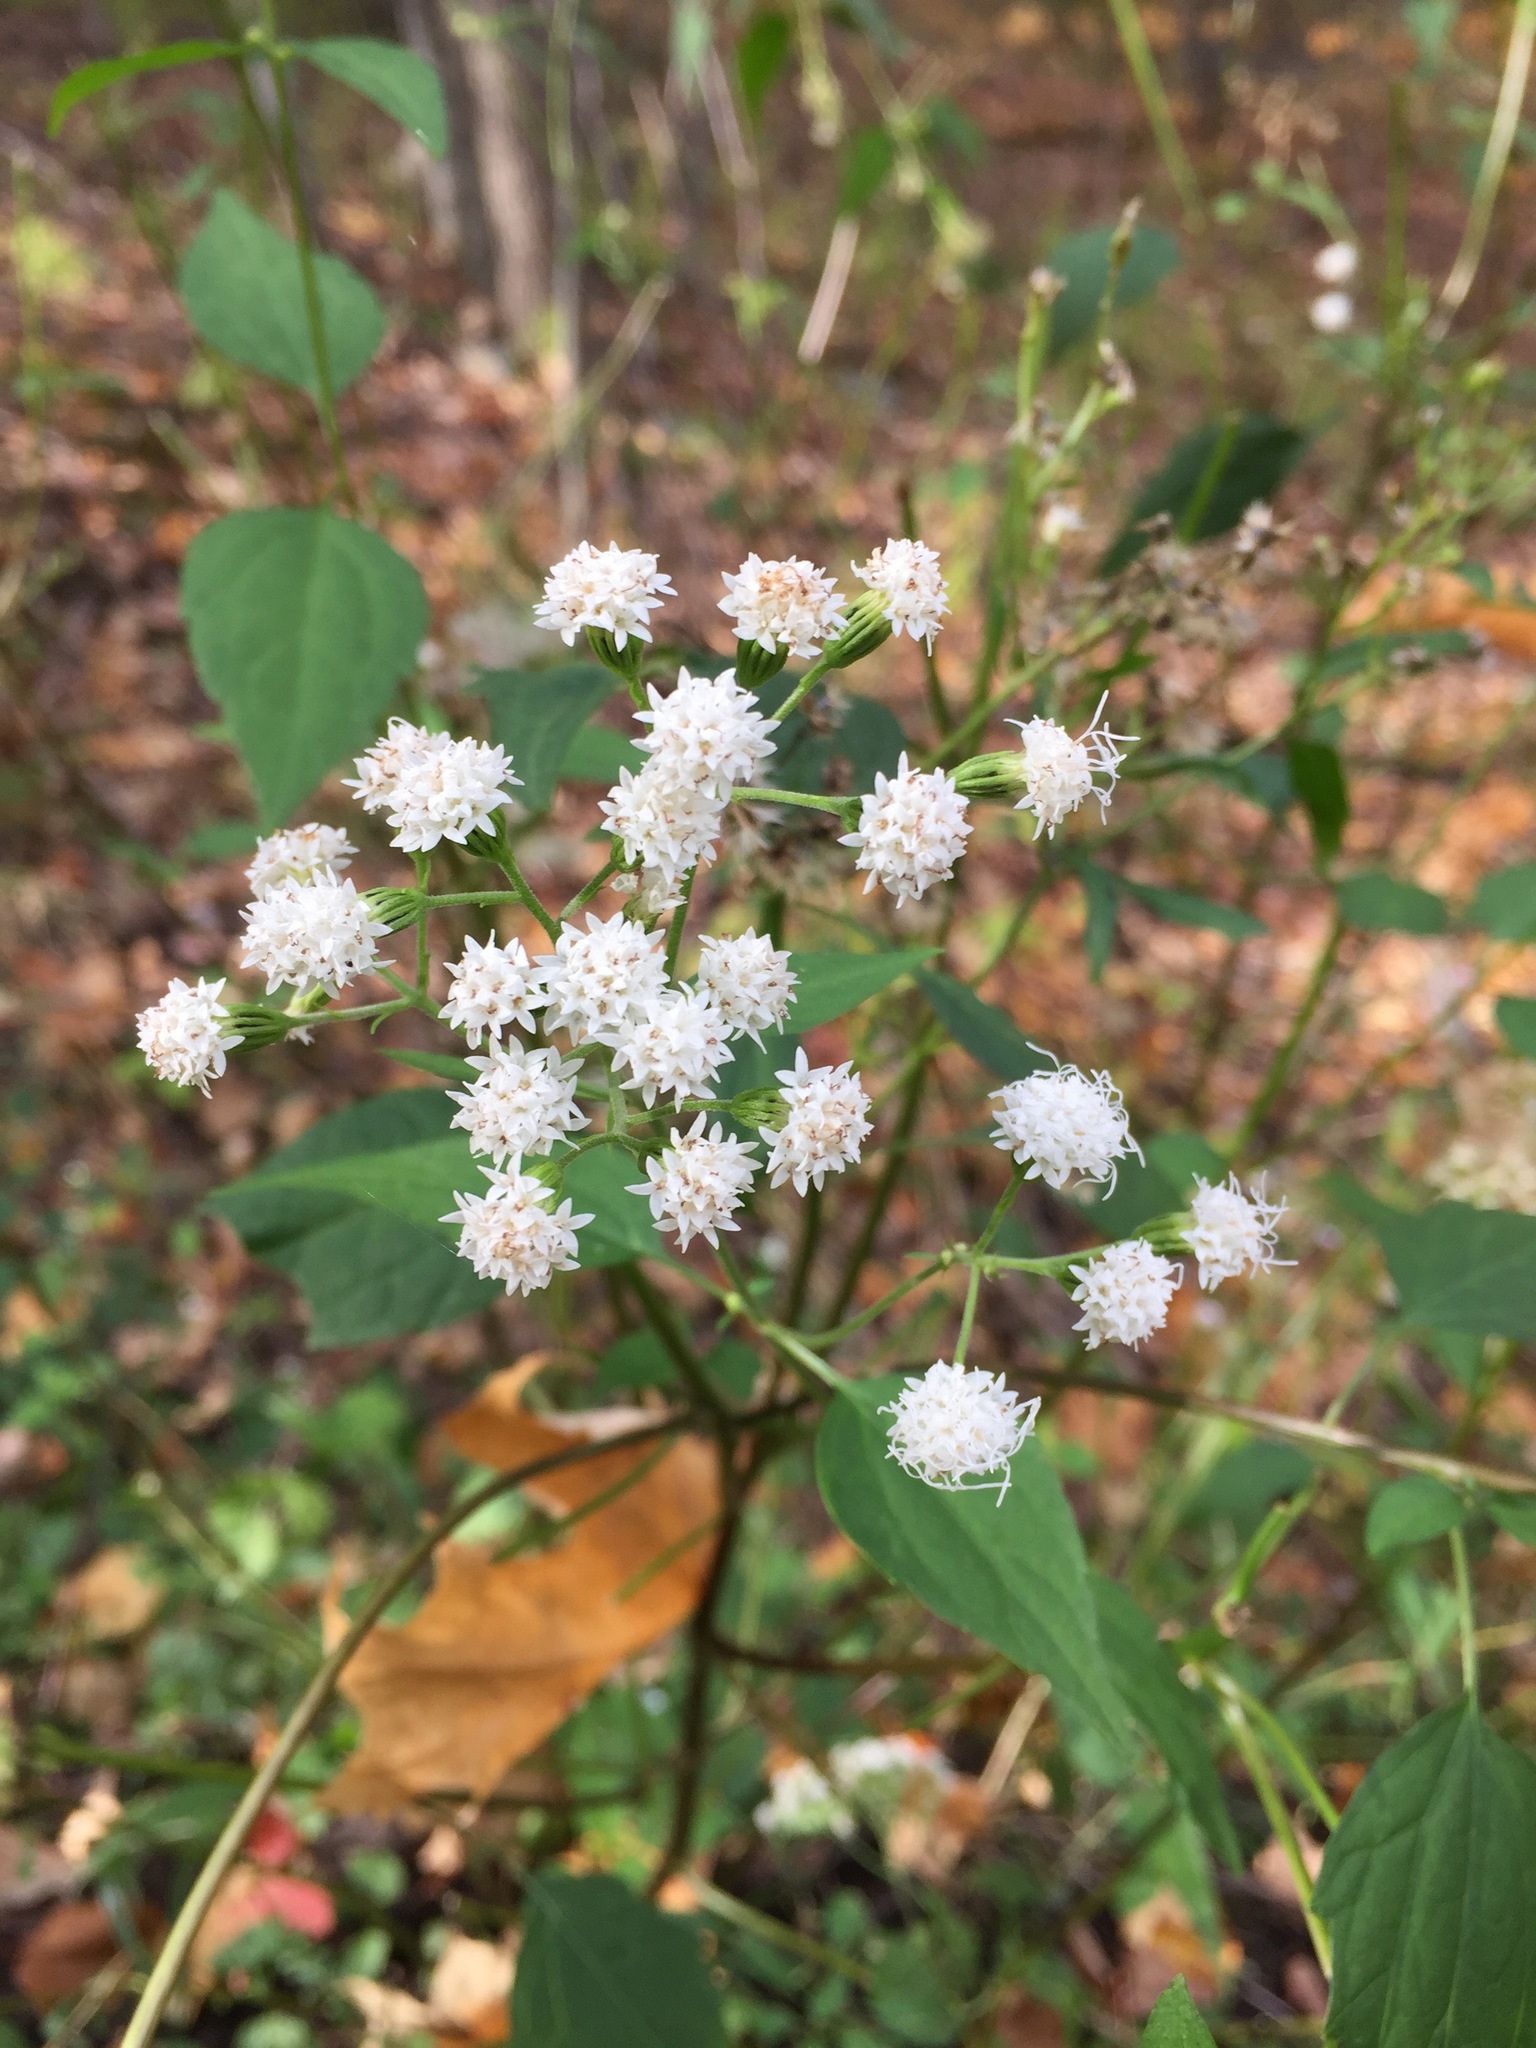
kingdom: Plantae
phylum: Tracheophyta
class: Magnoliopsida
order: Asterales
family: Asteraceae
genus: Ageratina
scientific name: Ageratina altissima
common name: White snakeroot
